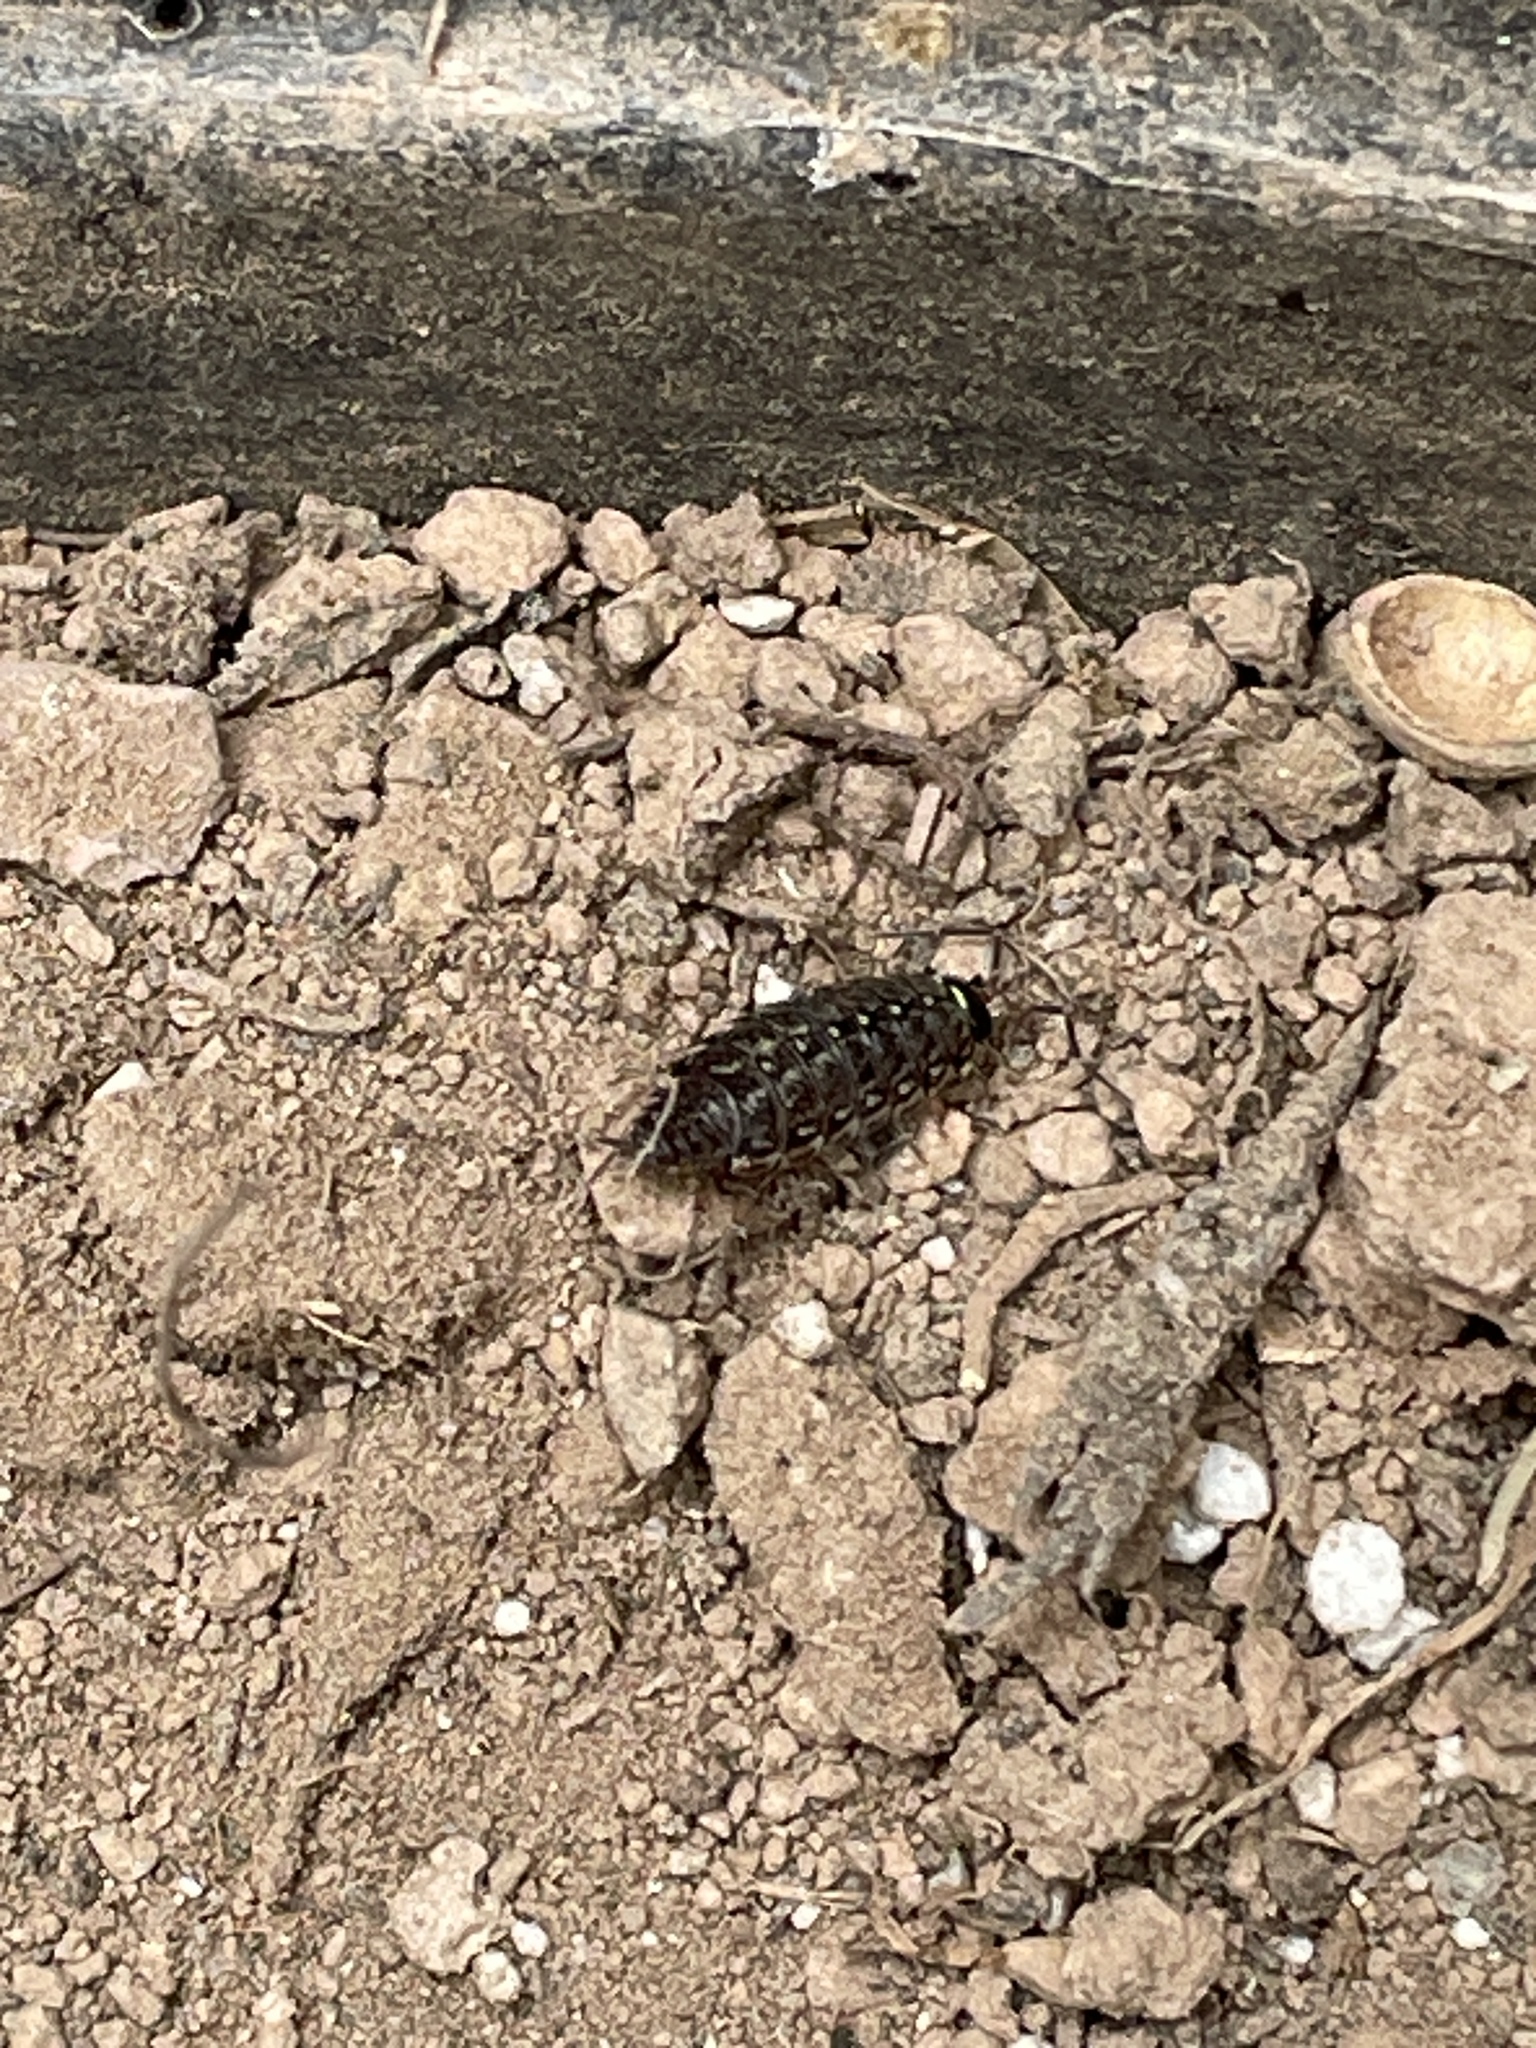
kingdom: Animalia
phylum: Arthropoda
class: Malacostraca
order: Isopoda
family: Philosciidae
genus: Philoscia
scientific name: Philoscia muscorum
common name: Common striped woodlouse
